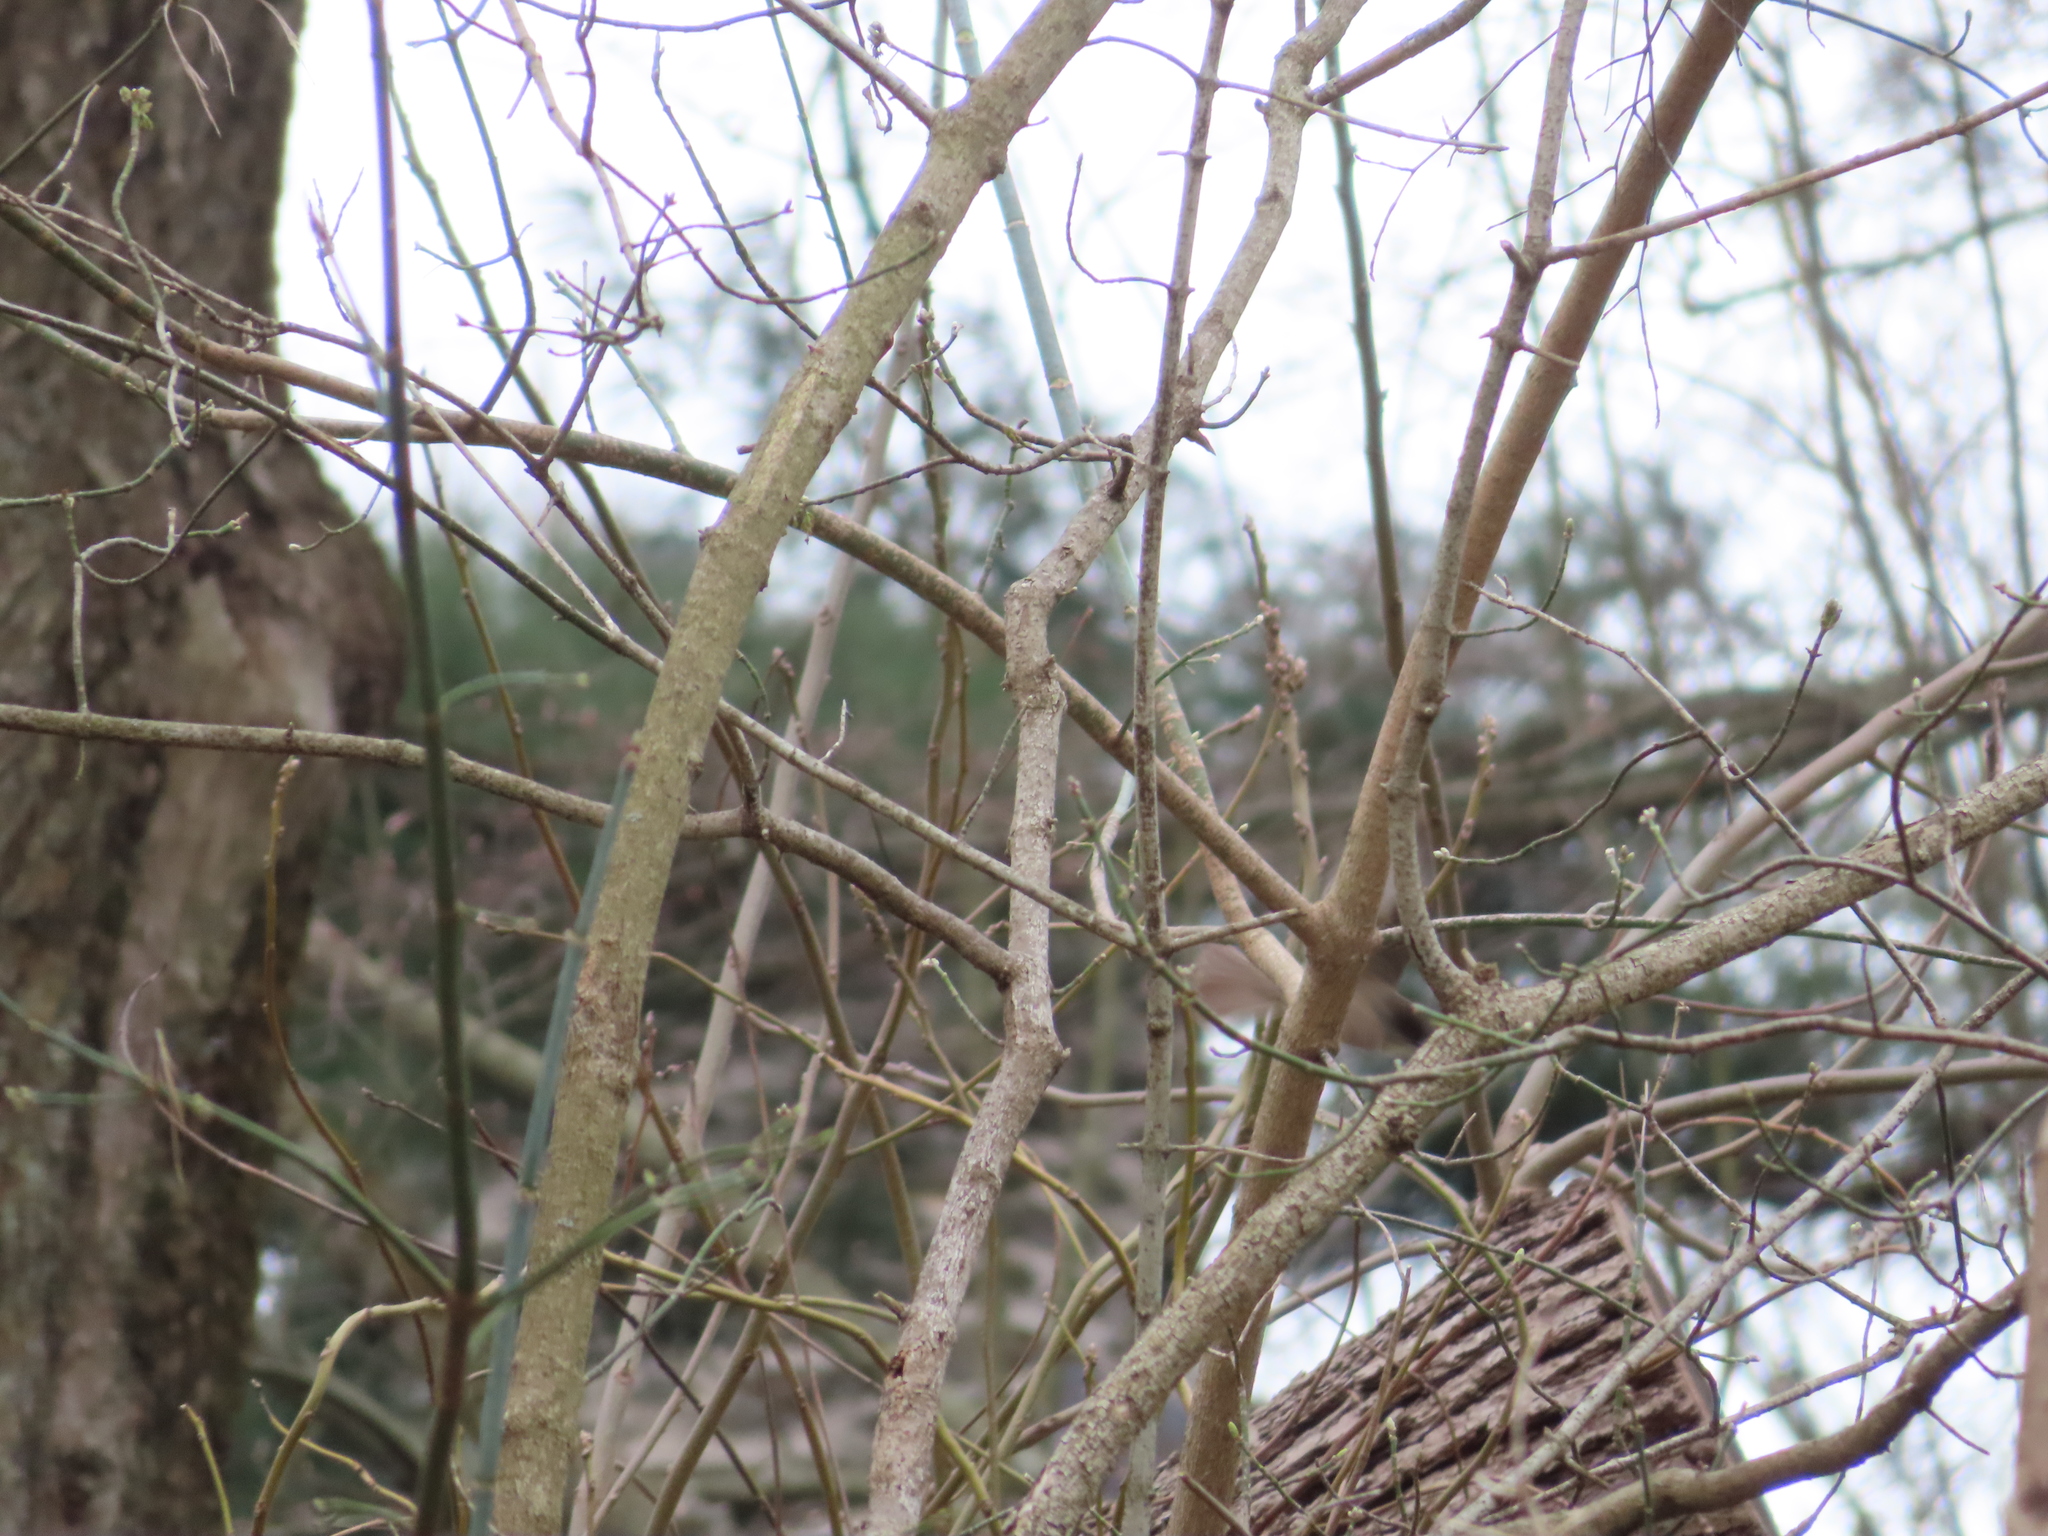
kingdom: Animalia
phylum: Chordata
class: Aves
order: Passeriformes
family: Tyrannidae
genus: Sayornis
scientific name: Sayornis phoebe
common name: Eastern phoebe
